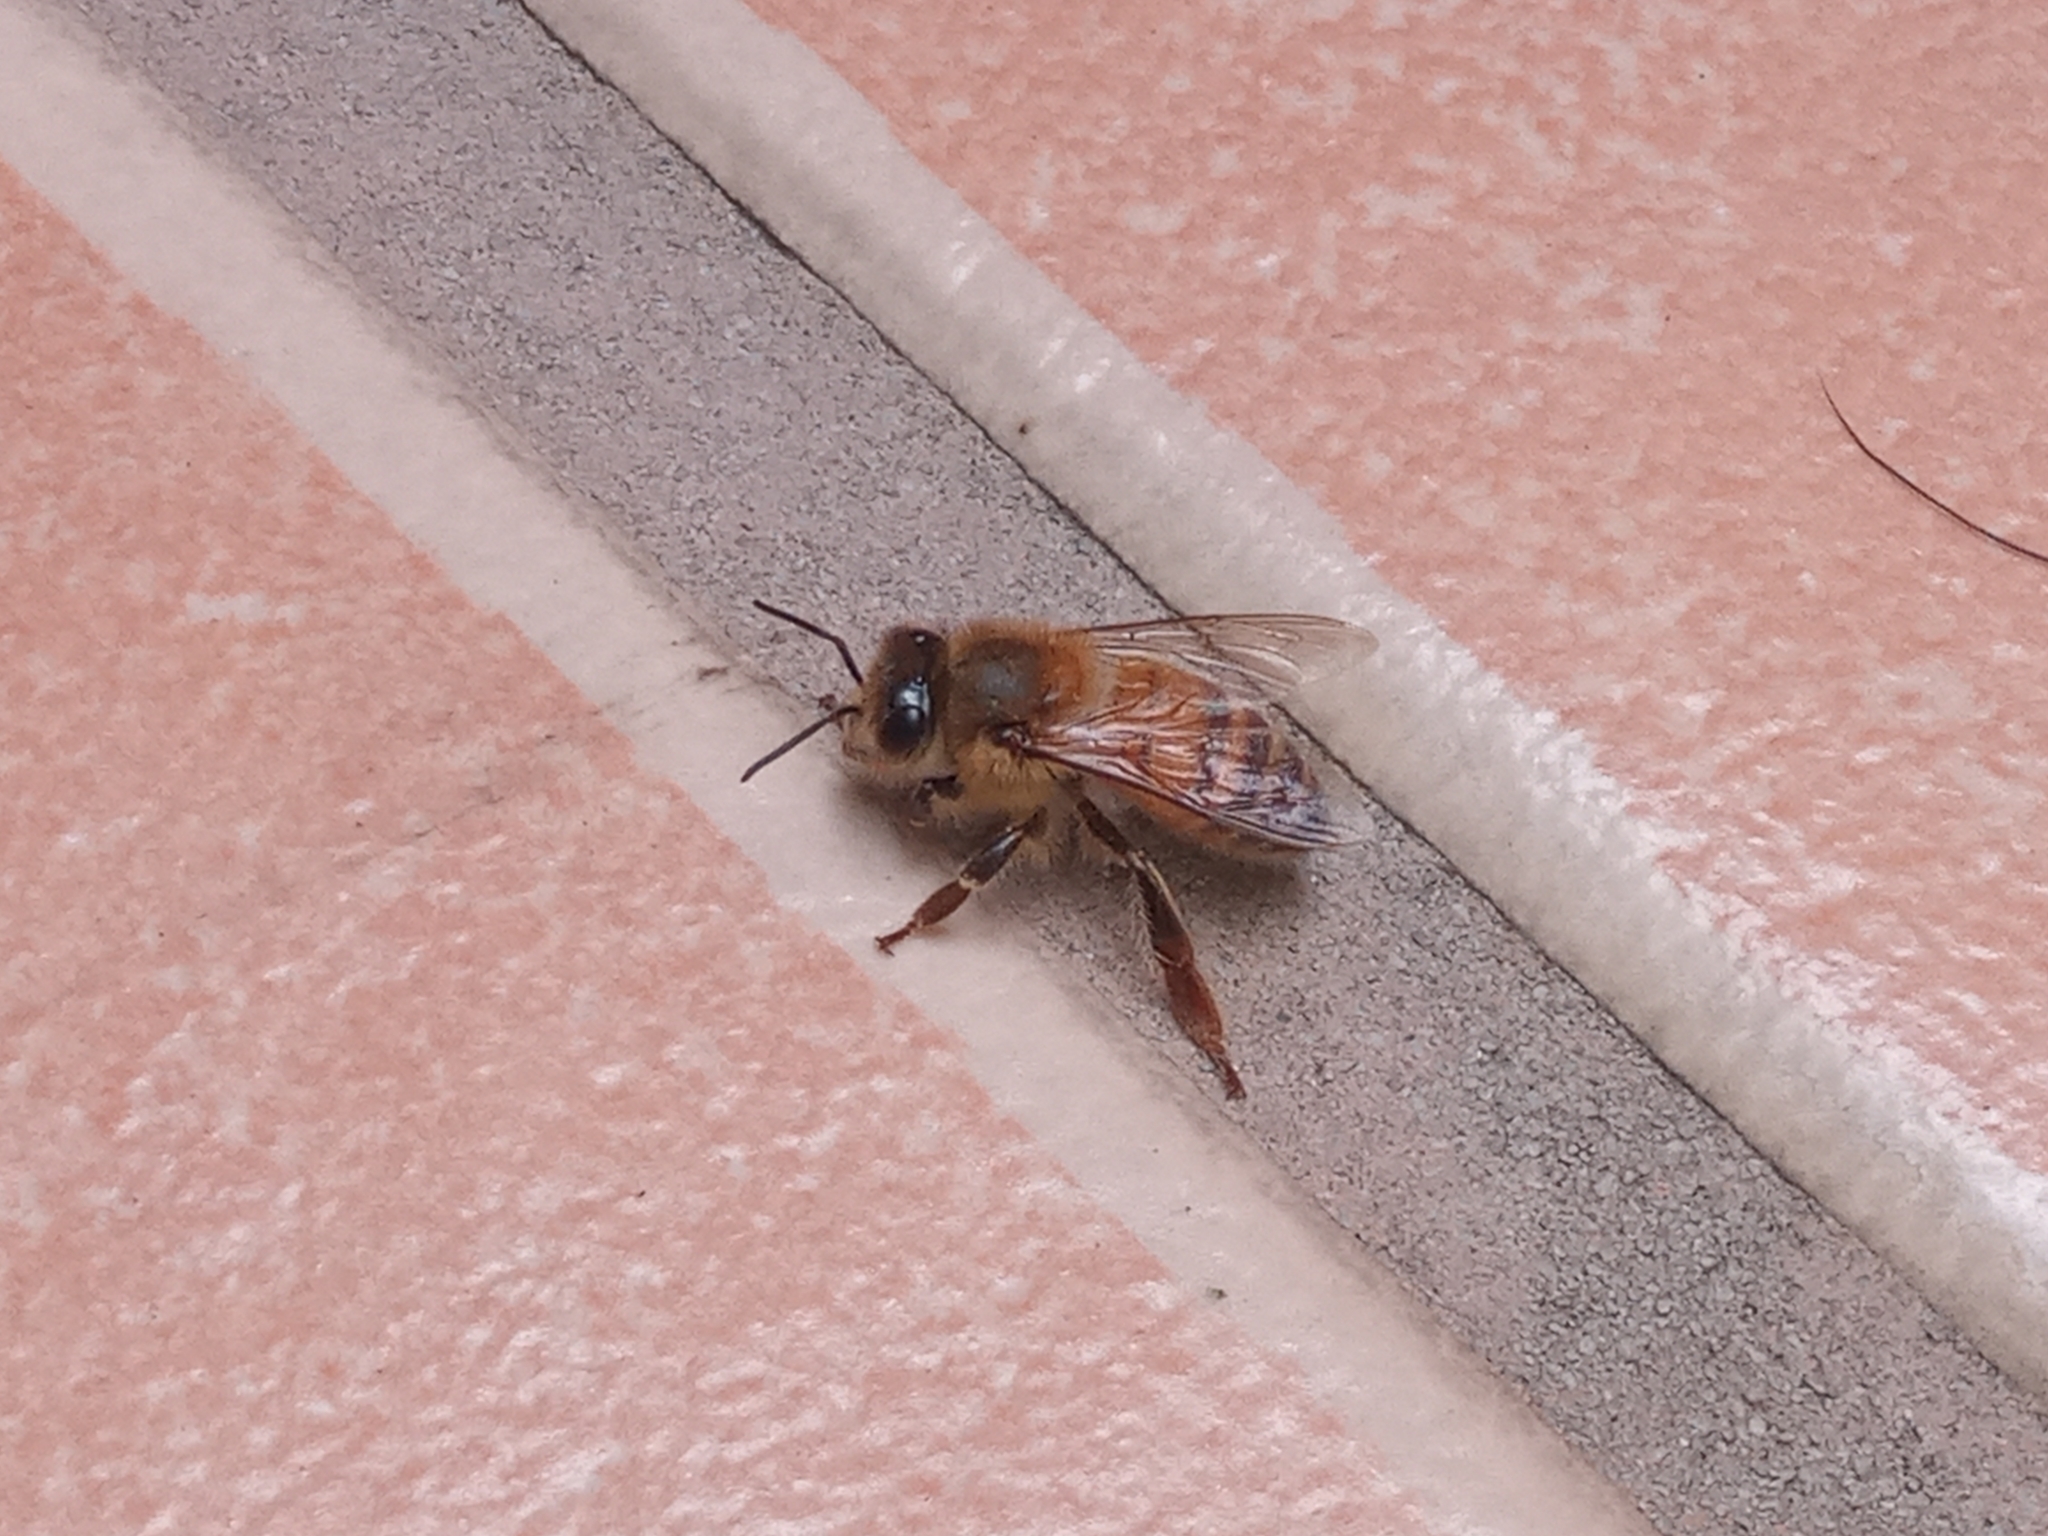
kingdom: Animalia
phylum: Arthropoda
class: Insecta
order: Hymenoptera
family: Apidae
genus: Apis
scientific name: Apis mellifera
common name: Honey bee
